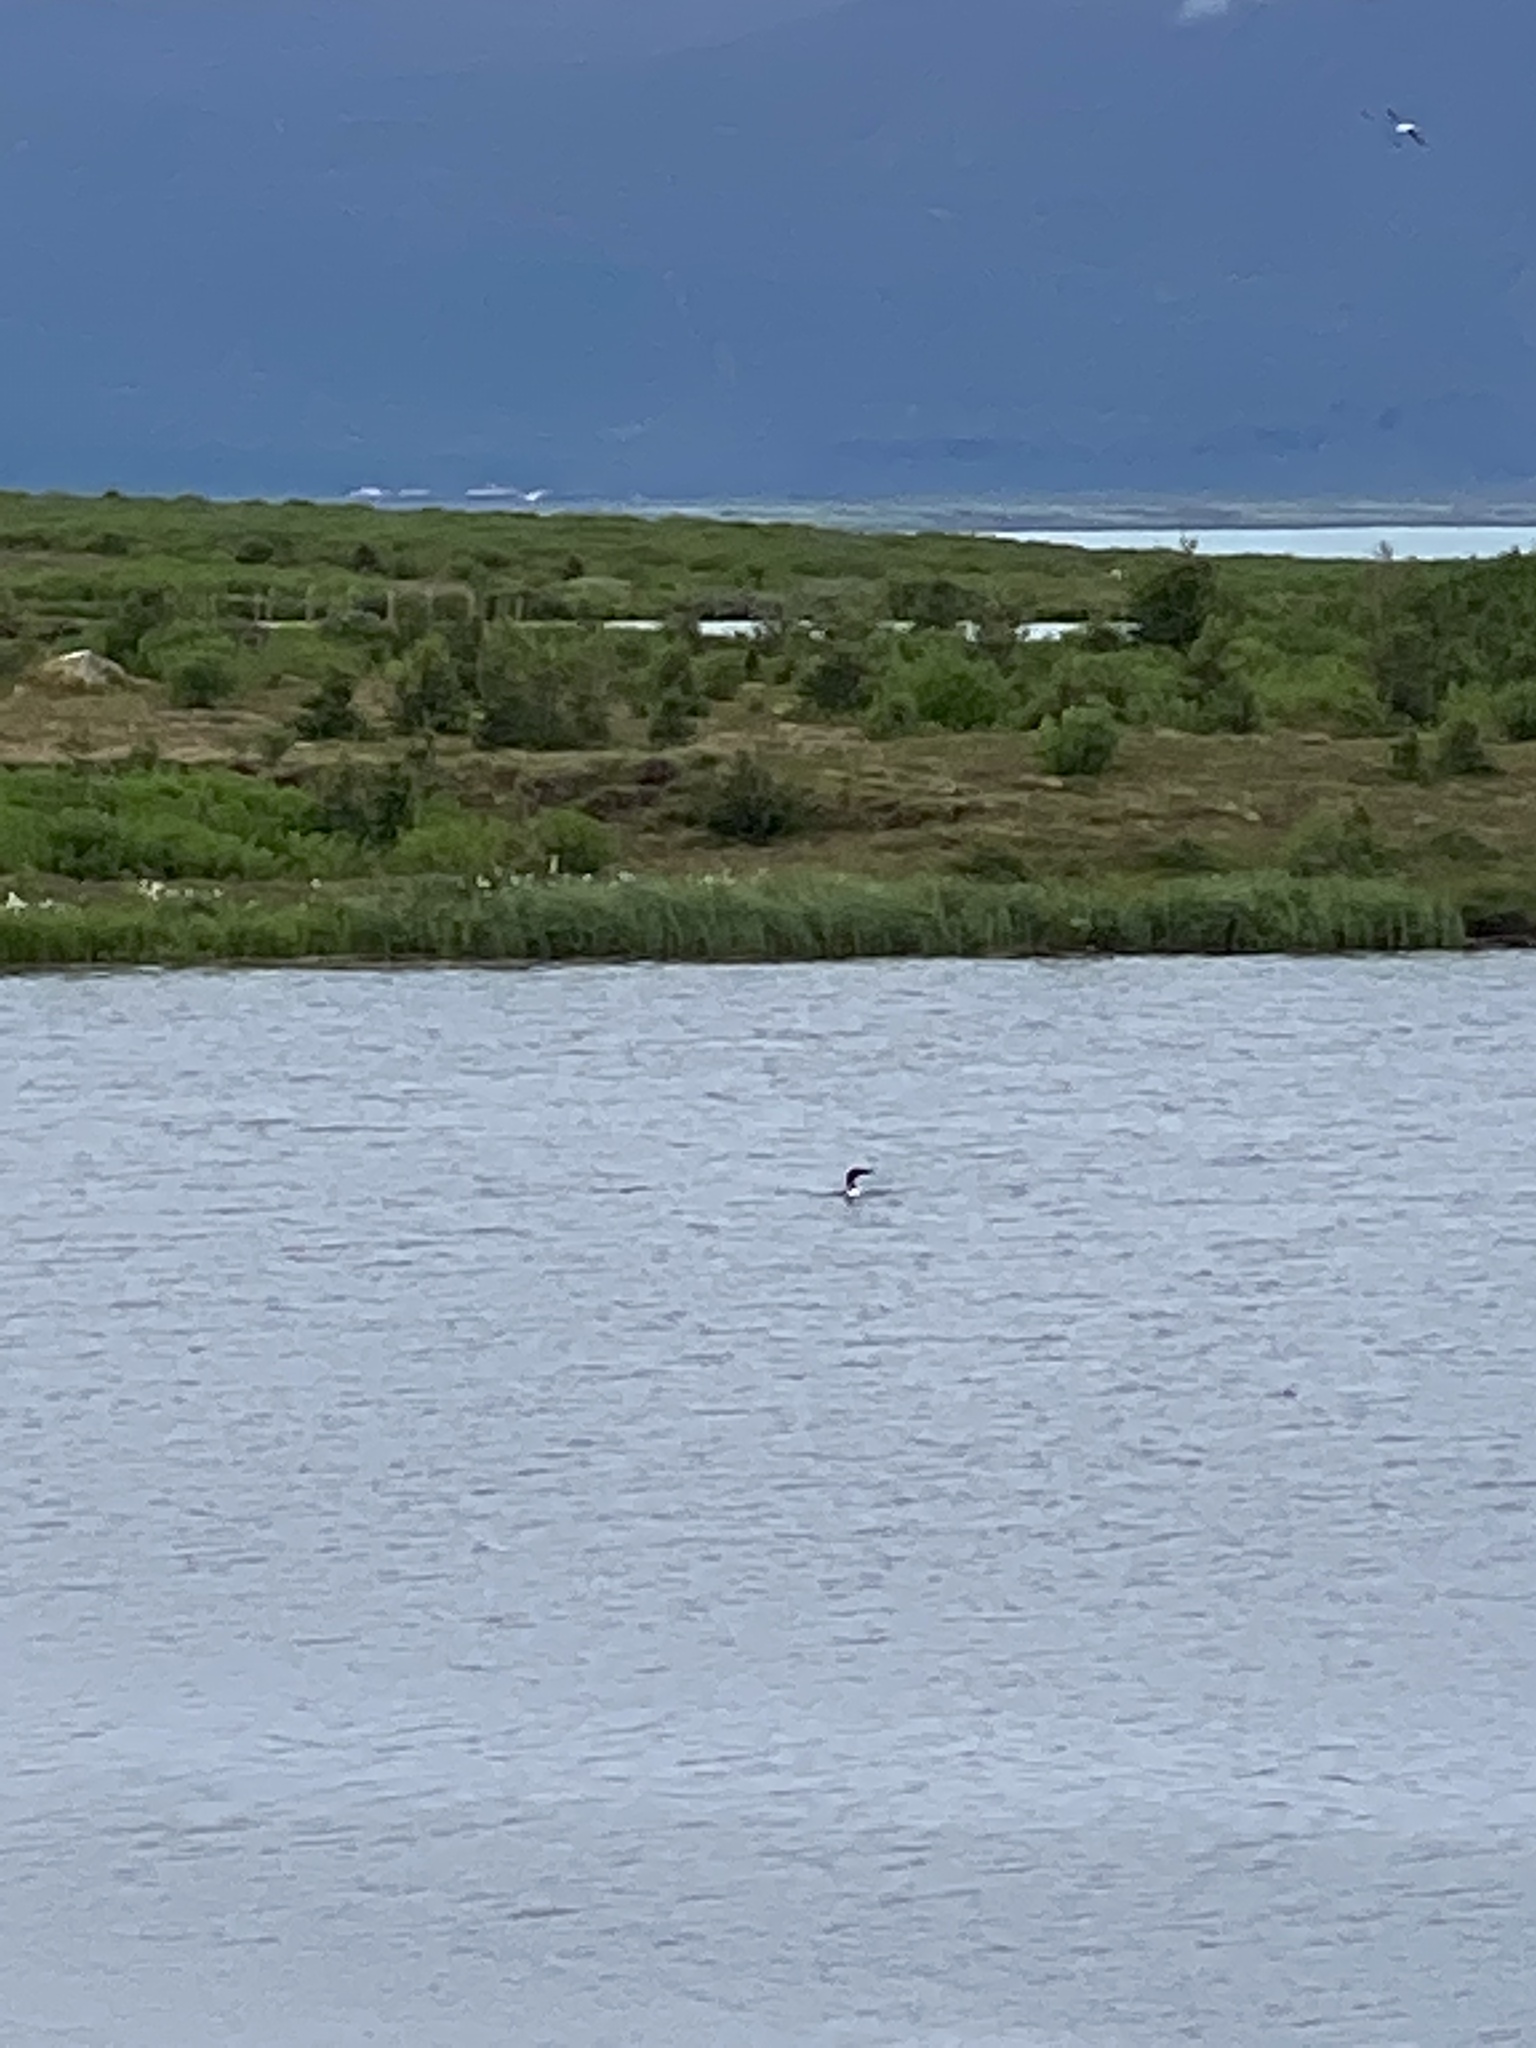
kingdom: Animalia
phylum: Chordata
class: Aves
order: Gaviiformes
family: Gaviidae
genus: Gavia
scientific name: Gavia immer
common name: Common loon
